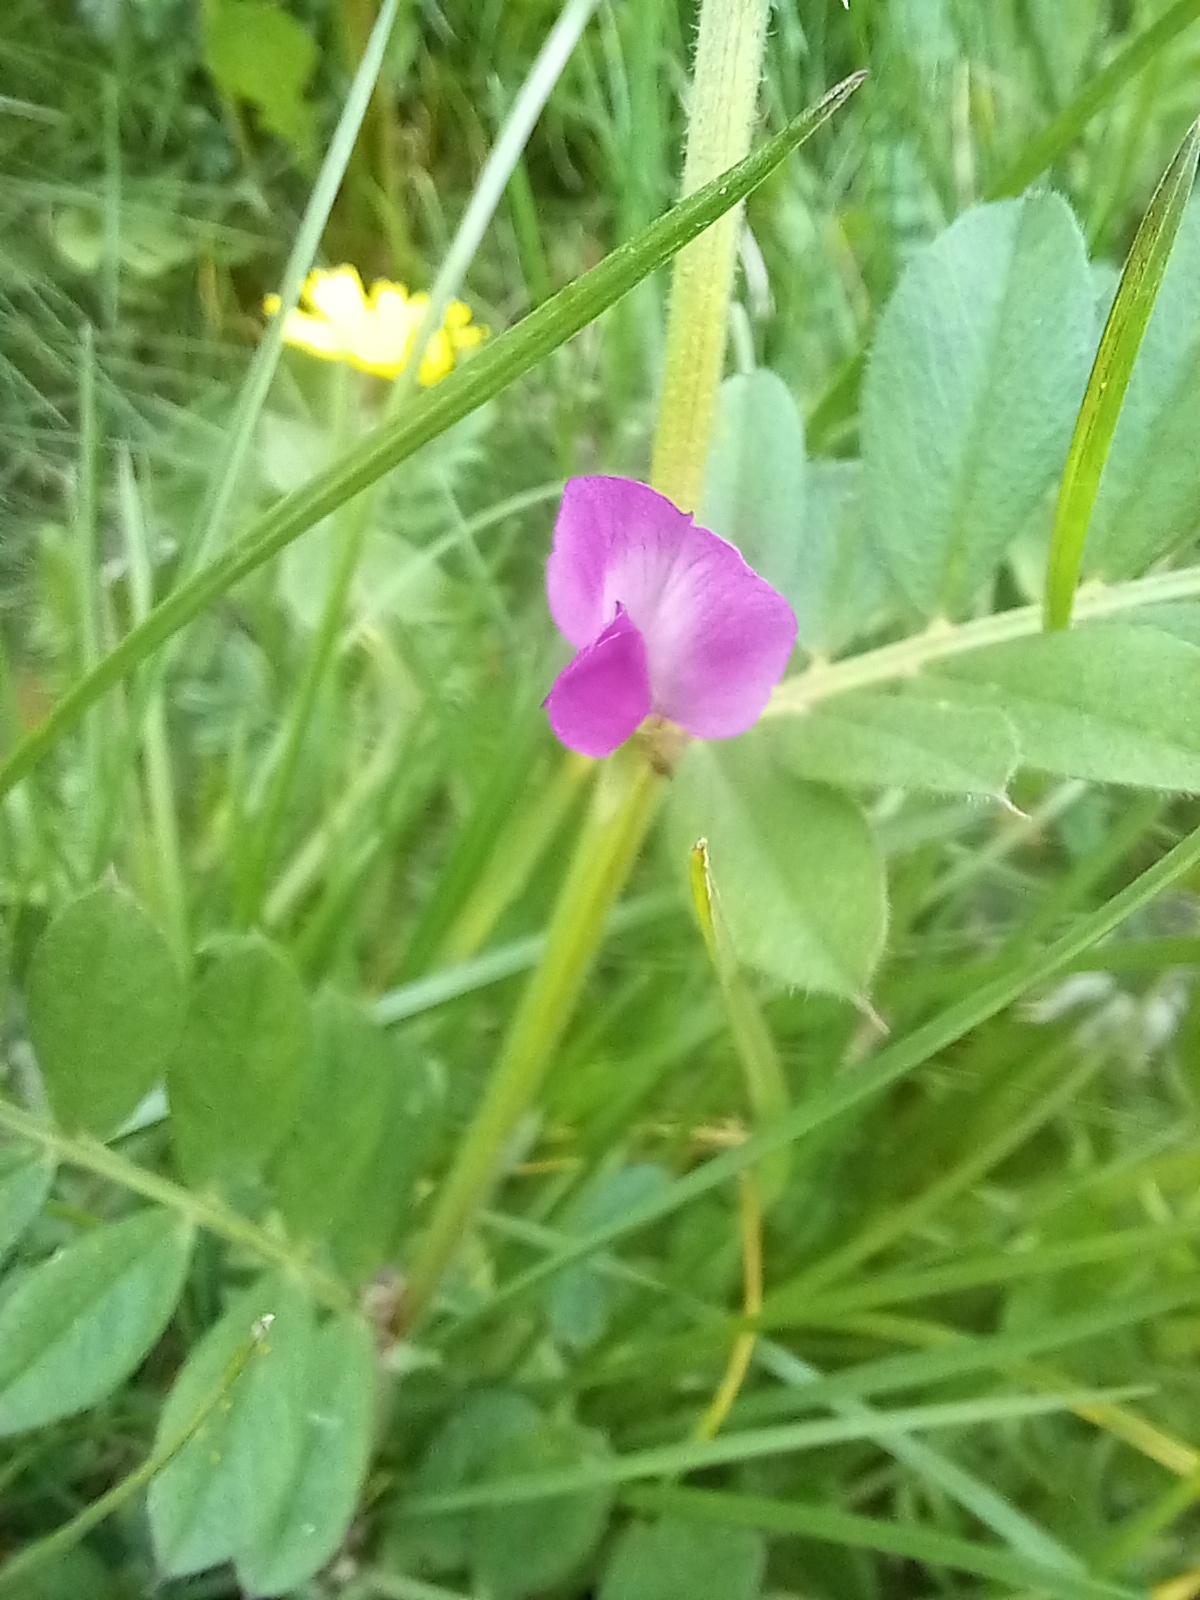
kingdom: Plantae
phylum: Tracheophyta
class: Magnoliopsida
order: Fabales
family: Fabaceae
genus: Vicia
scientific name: Vicia sativa
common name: Garden vetch
